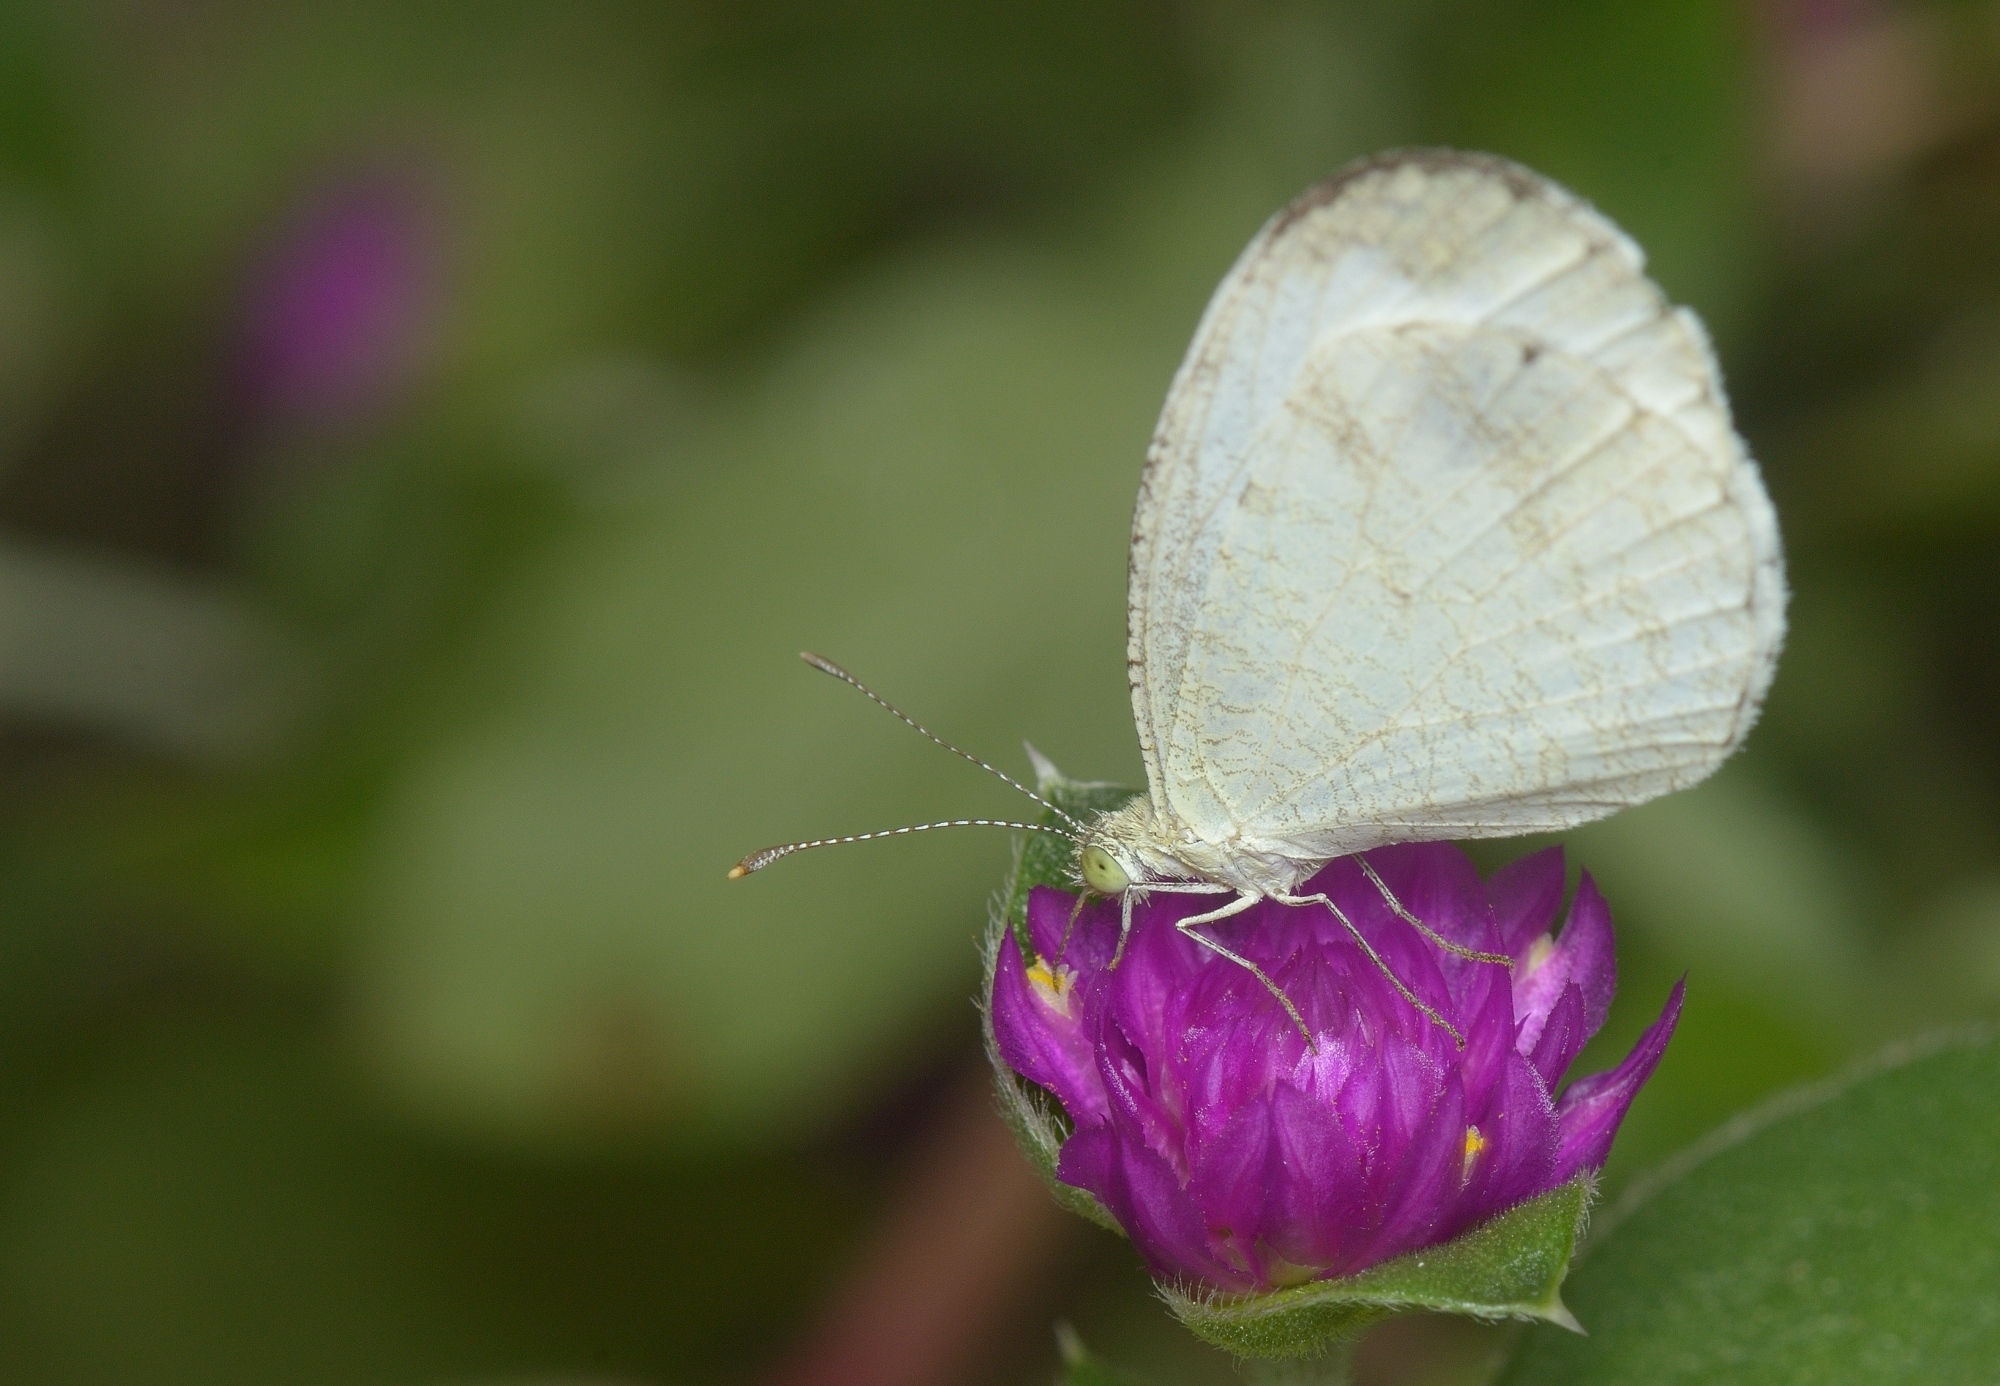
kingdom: Animalia
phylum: Arthropoda
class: Insecta
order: Lepidoptera
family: Pieridae
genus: Leptosia
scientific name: Leptosia nina
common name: Psyche
